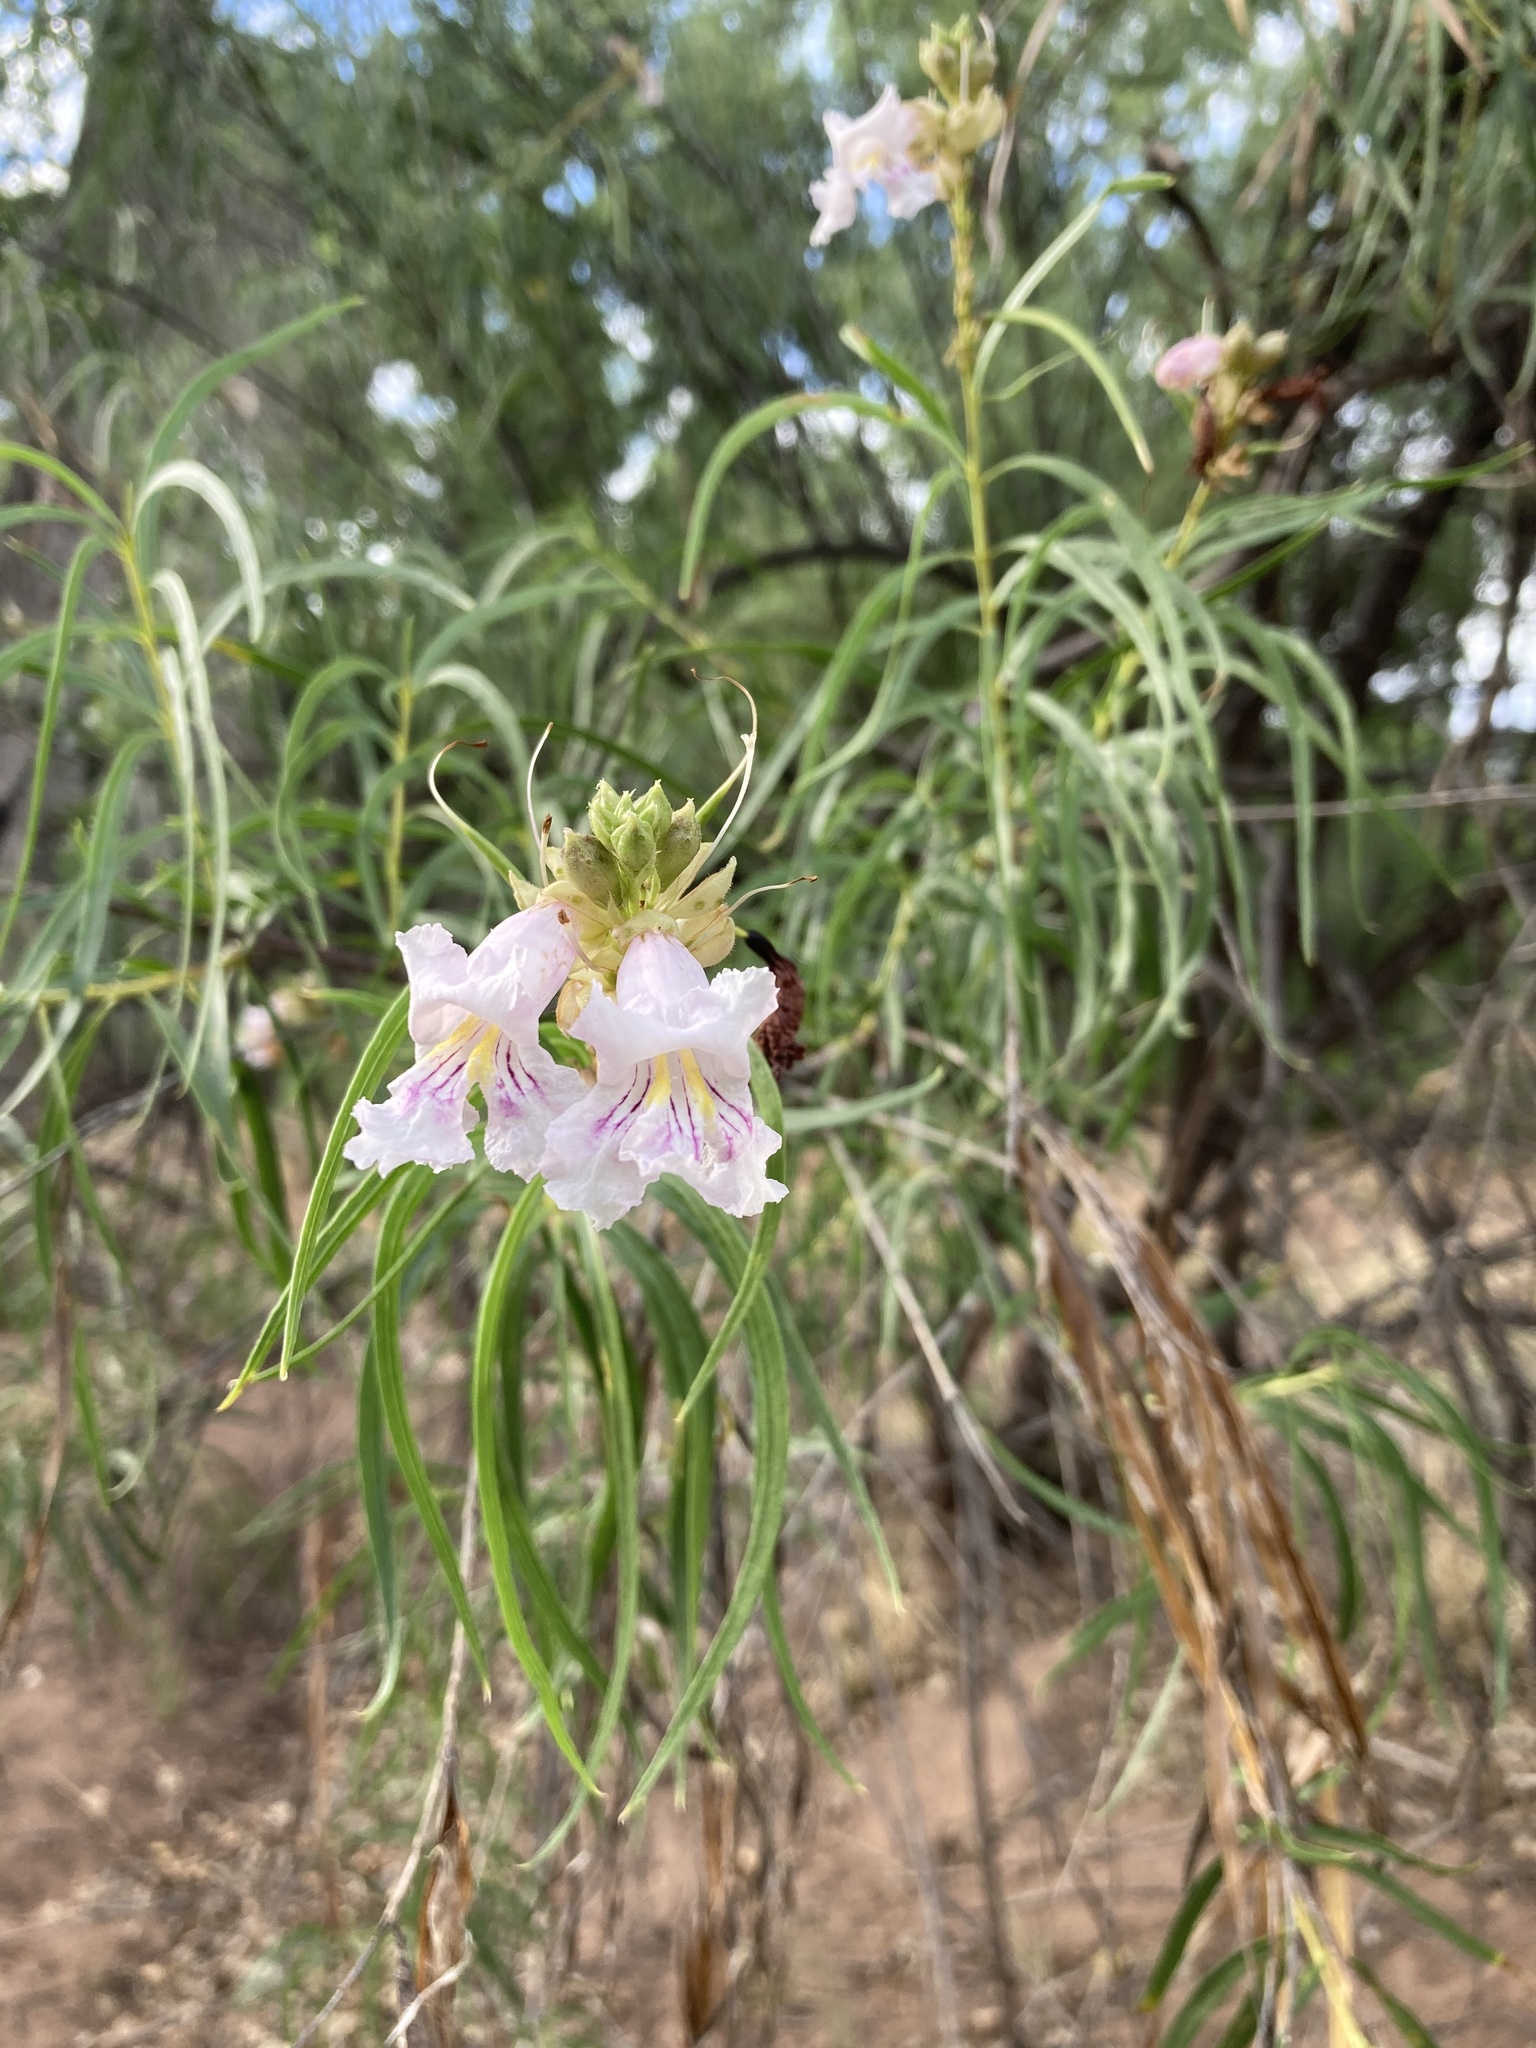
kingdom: Plantae
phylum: Tracheophyta
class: Magnoliopsida
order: Lamiales
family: Bignoniaceae
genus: Chilopsis
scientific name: Chilopsis linearis
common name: Desert-willow
